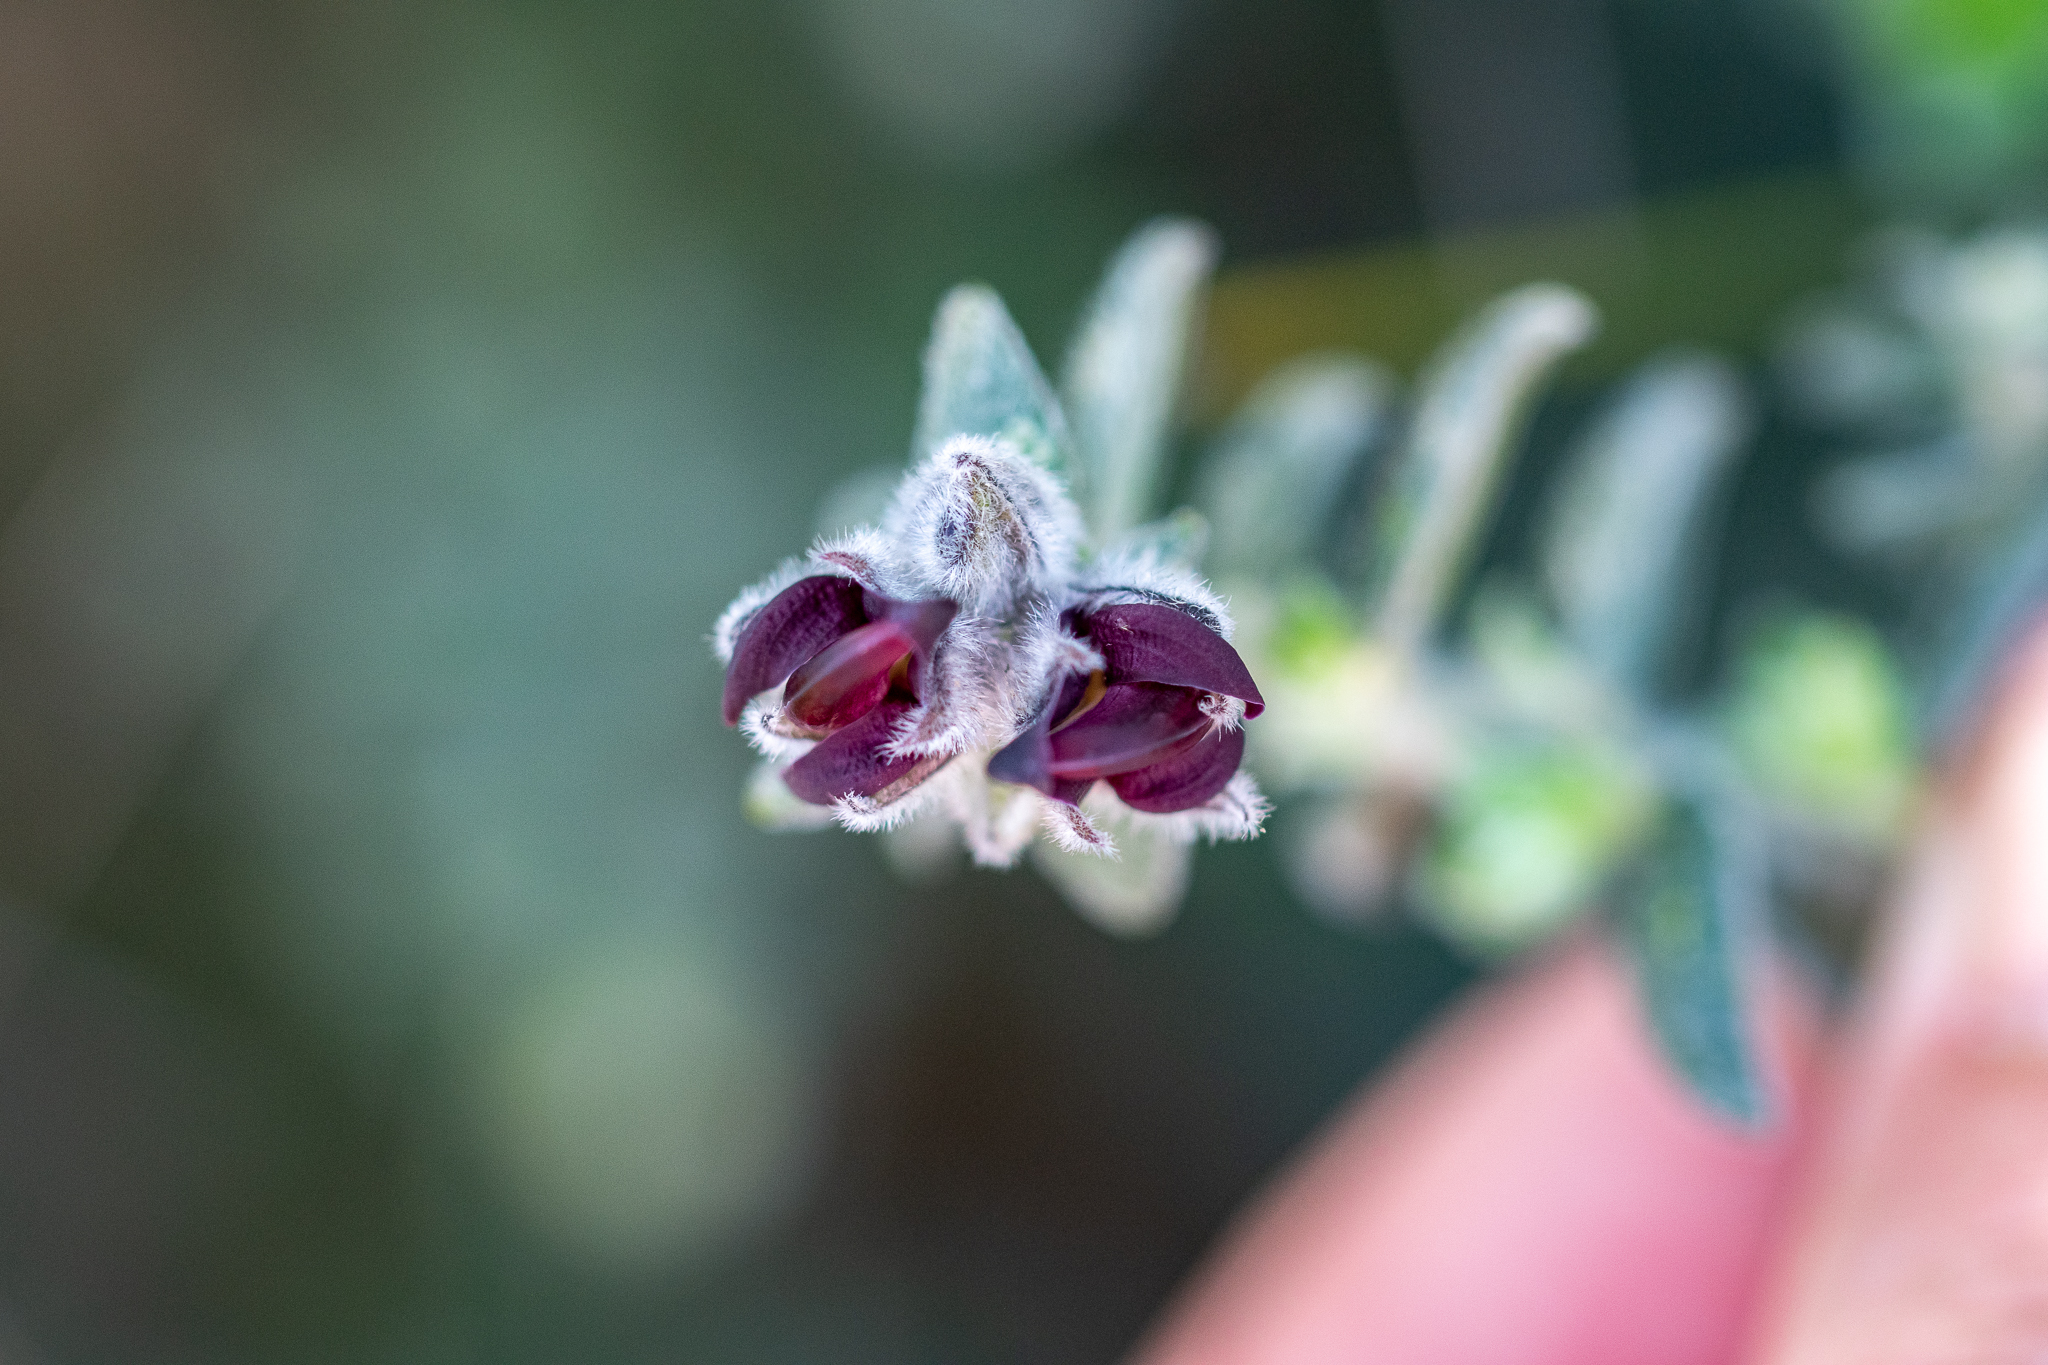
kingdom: Plantae
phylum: Tracheophyta
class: Magnoliopsida
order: Fabales
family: Fabaceae
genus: Amphithalea
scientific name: Amphithalea rostrata
